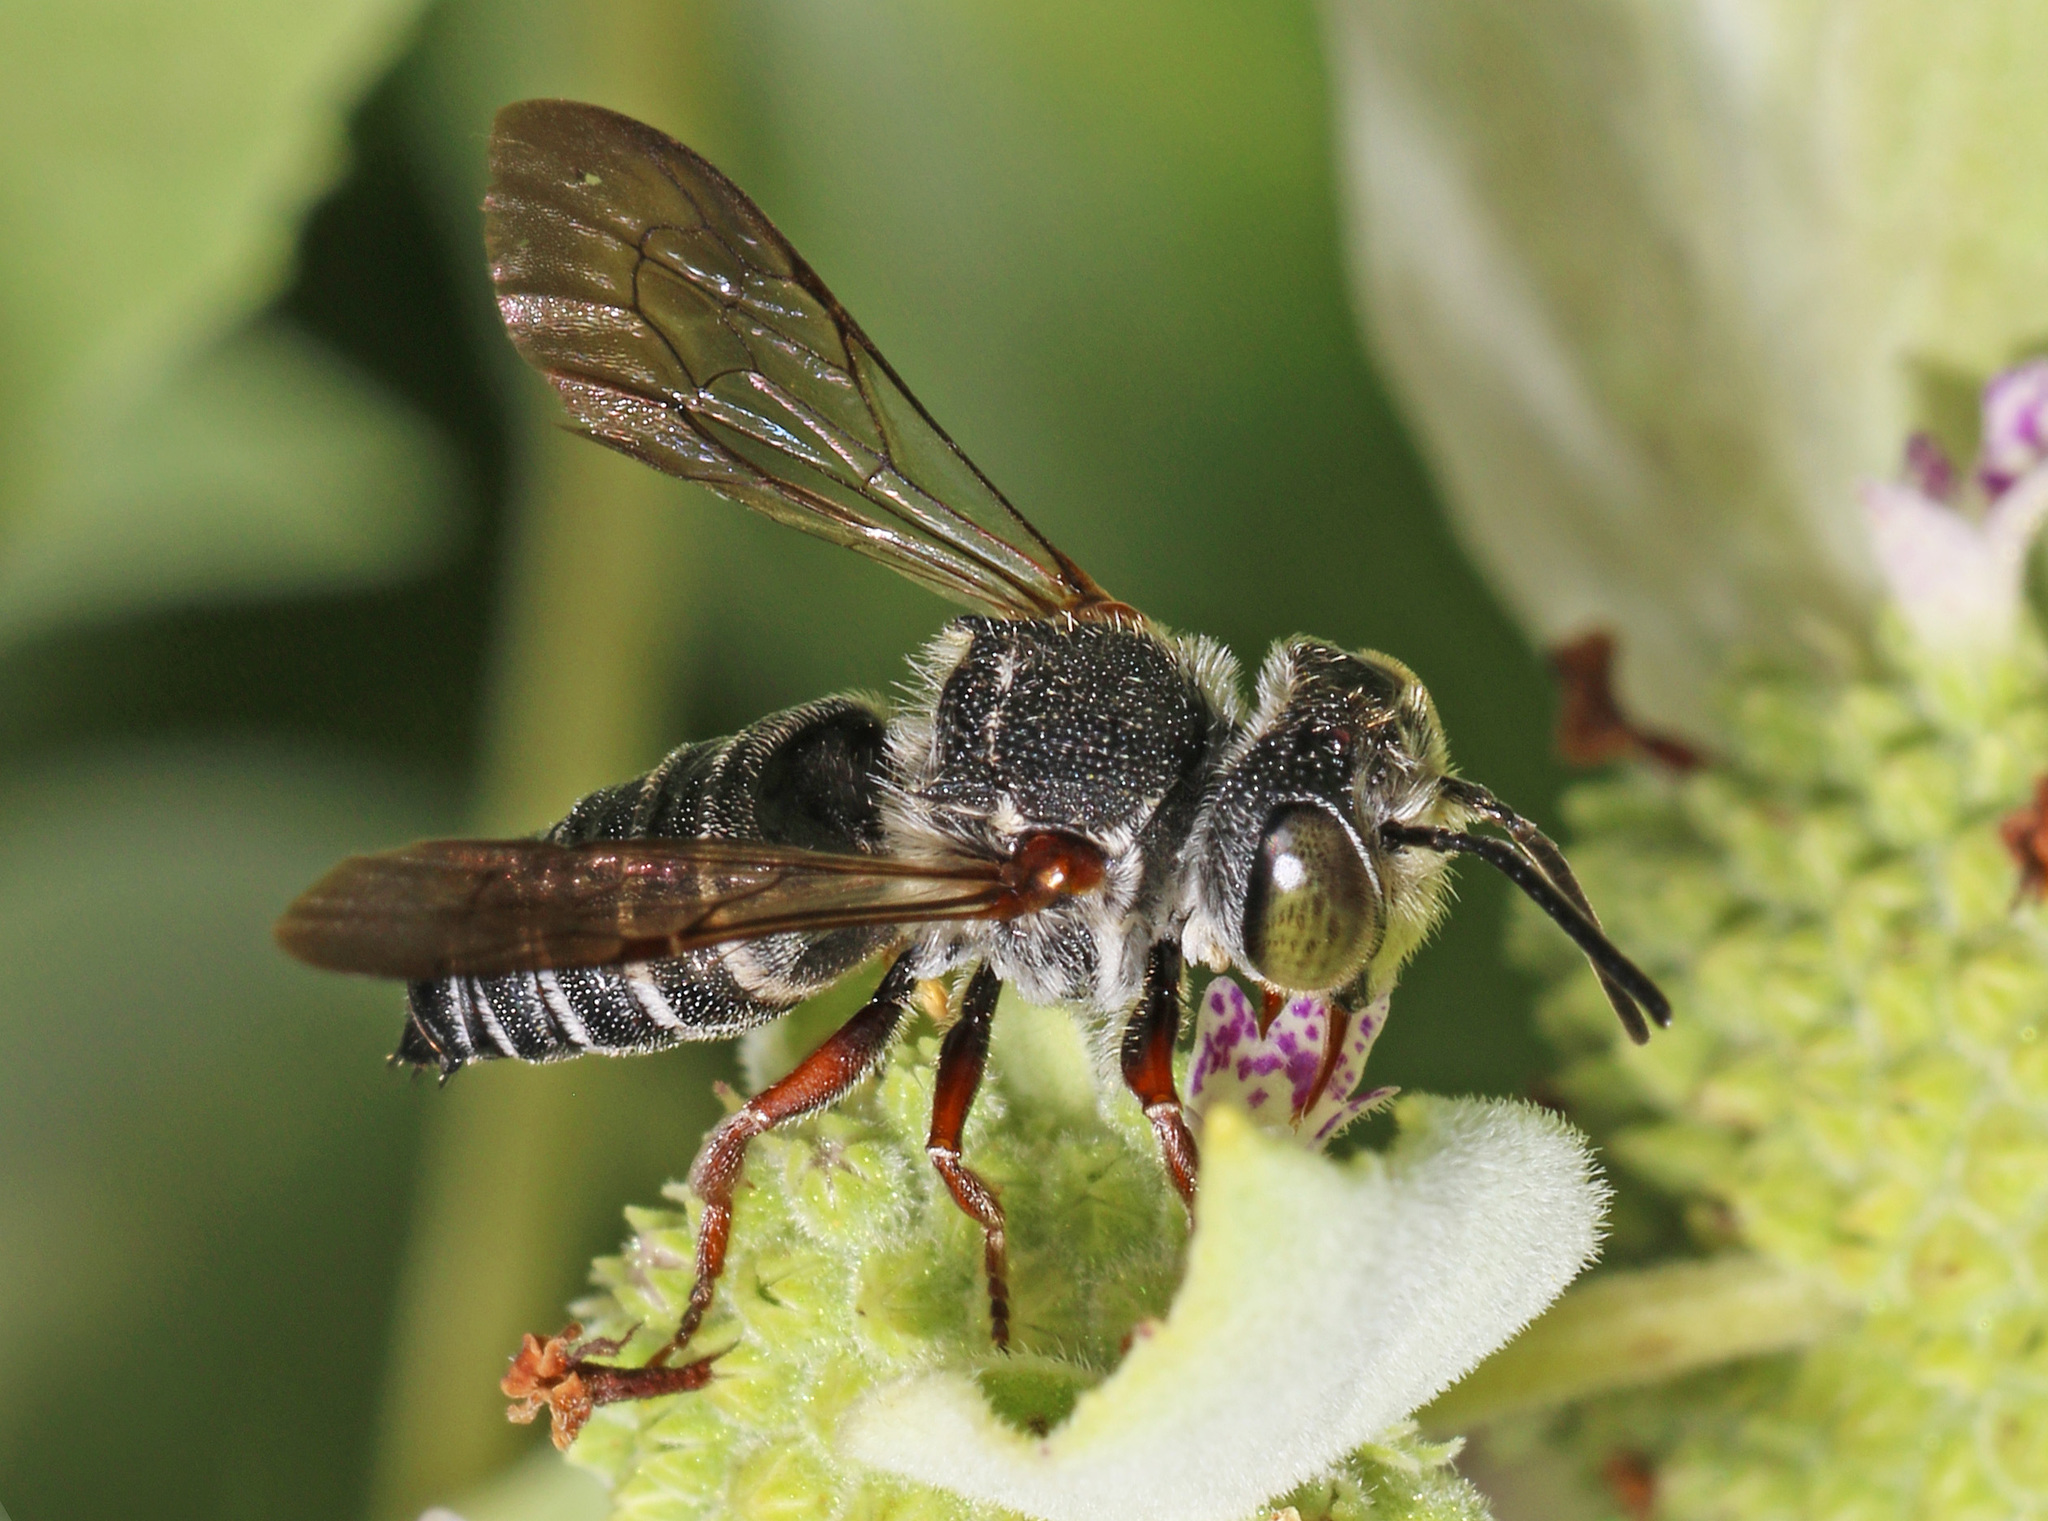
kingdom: Animalia
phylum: Arthropoda
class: Insecta
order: Hymenoptera
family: Megachilidae
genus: Coelioxys
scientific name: Coelioxys octodentatus
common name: Eight-toothed cuckoo leaf-cutter bee
